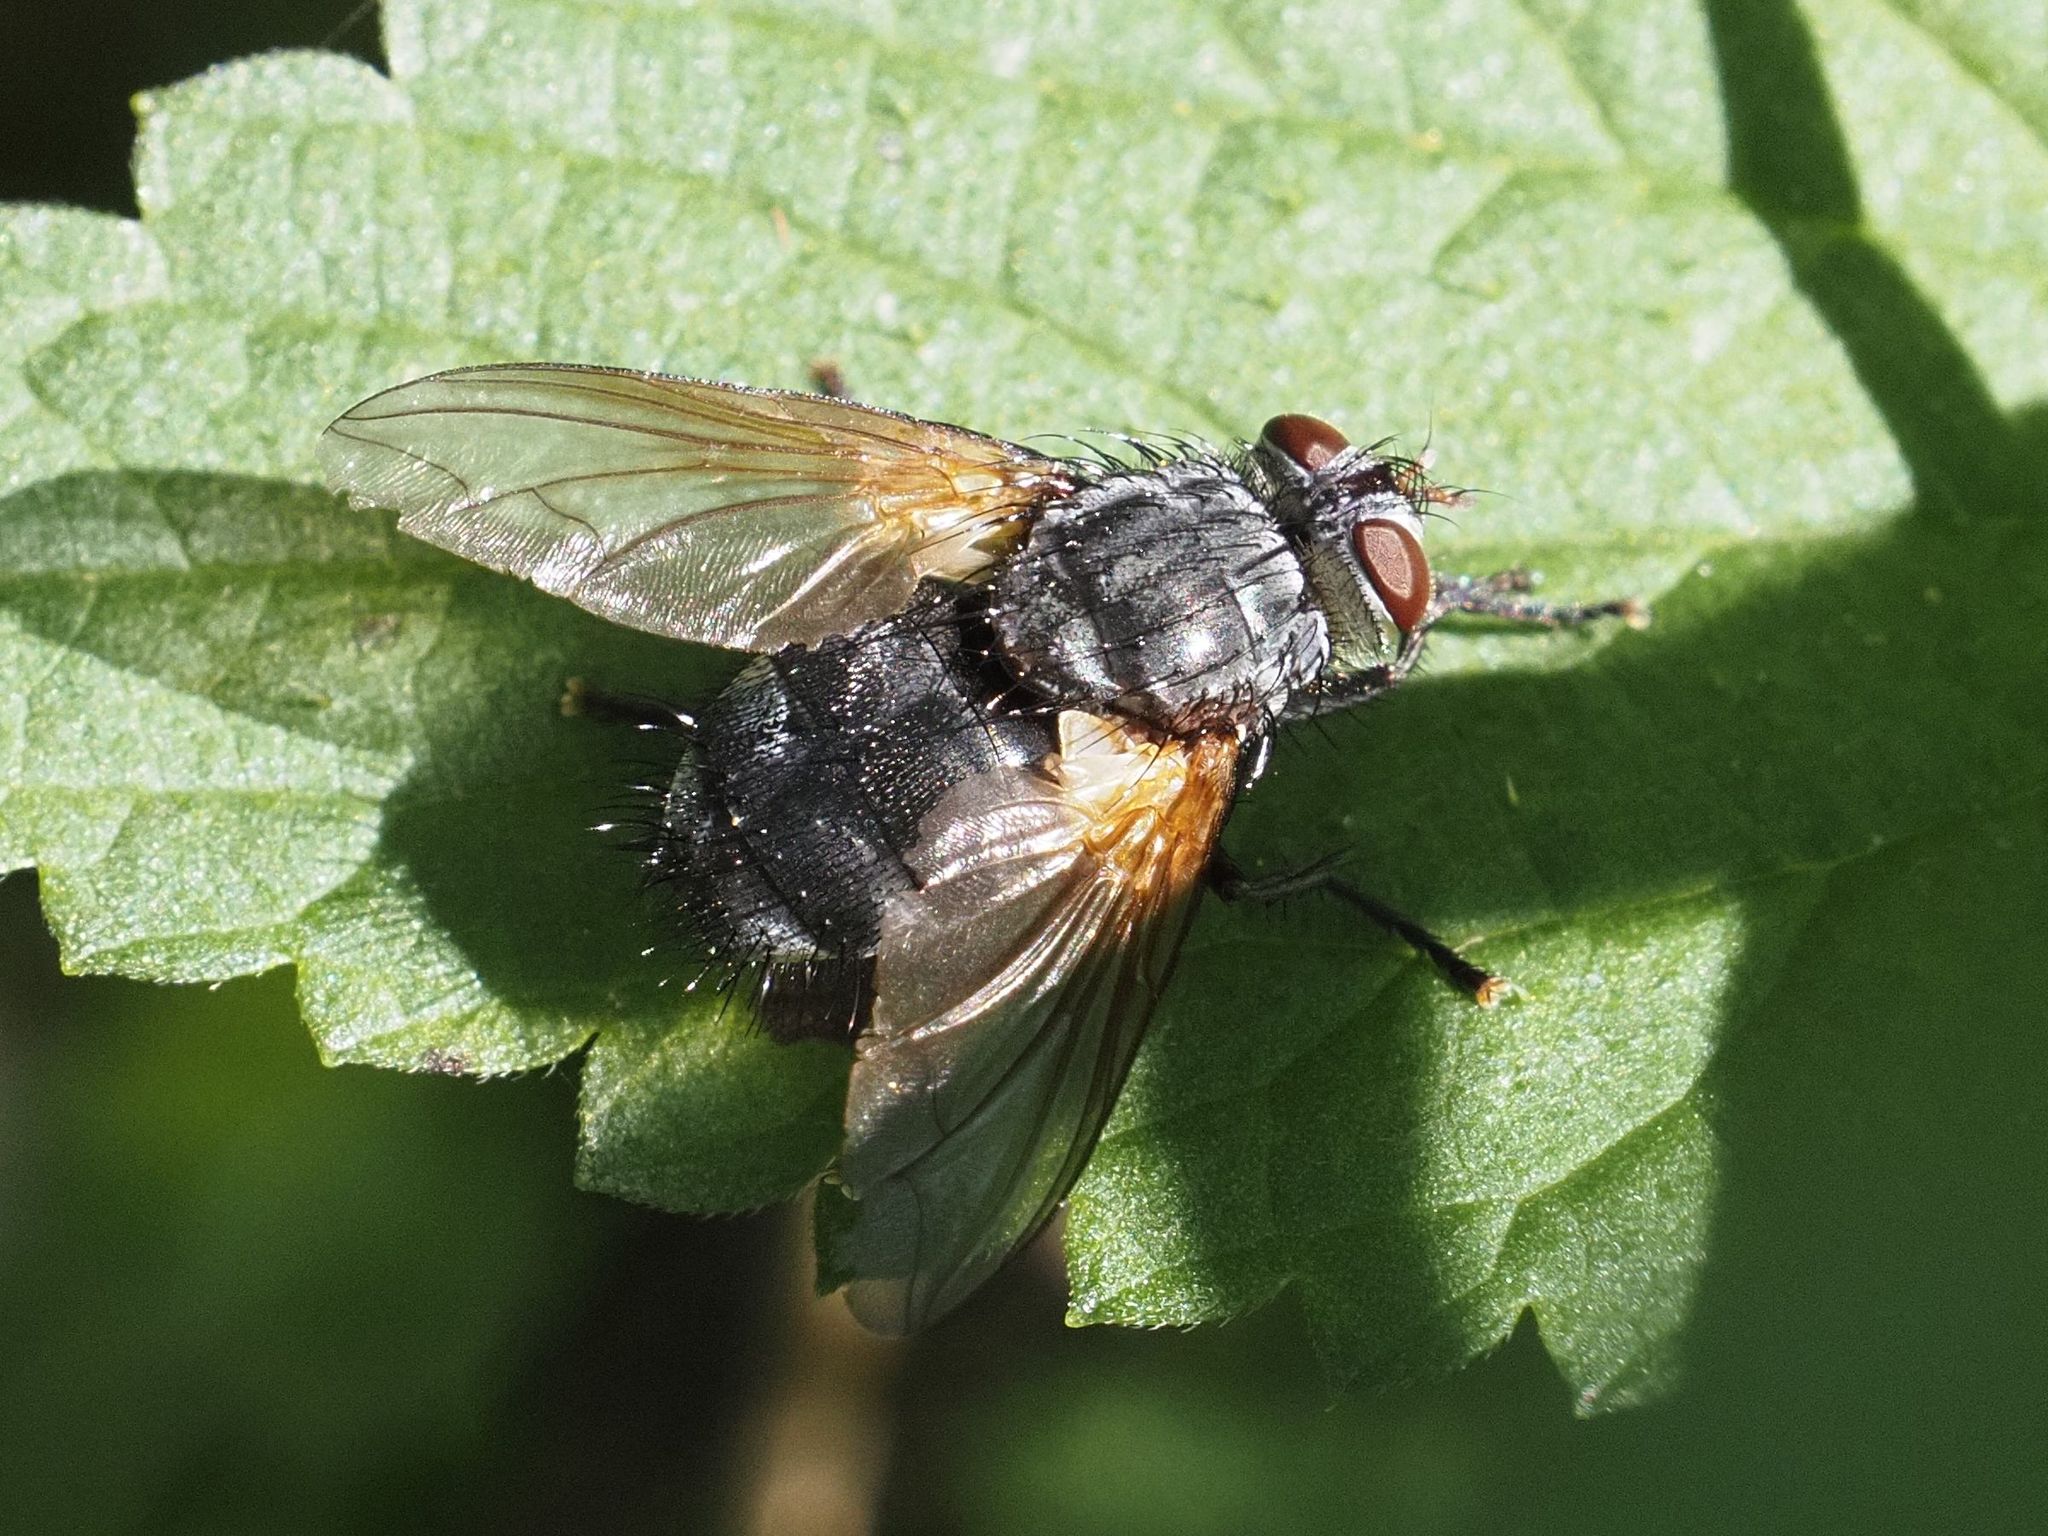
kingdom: Animalia
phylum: Arthropoda
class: Insecta
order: Diptera
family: Tachinidae
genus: Nemoraea
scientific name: Nemoraea pellucida
